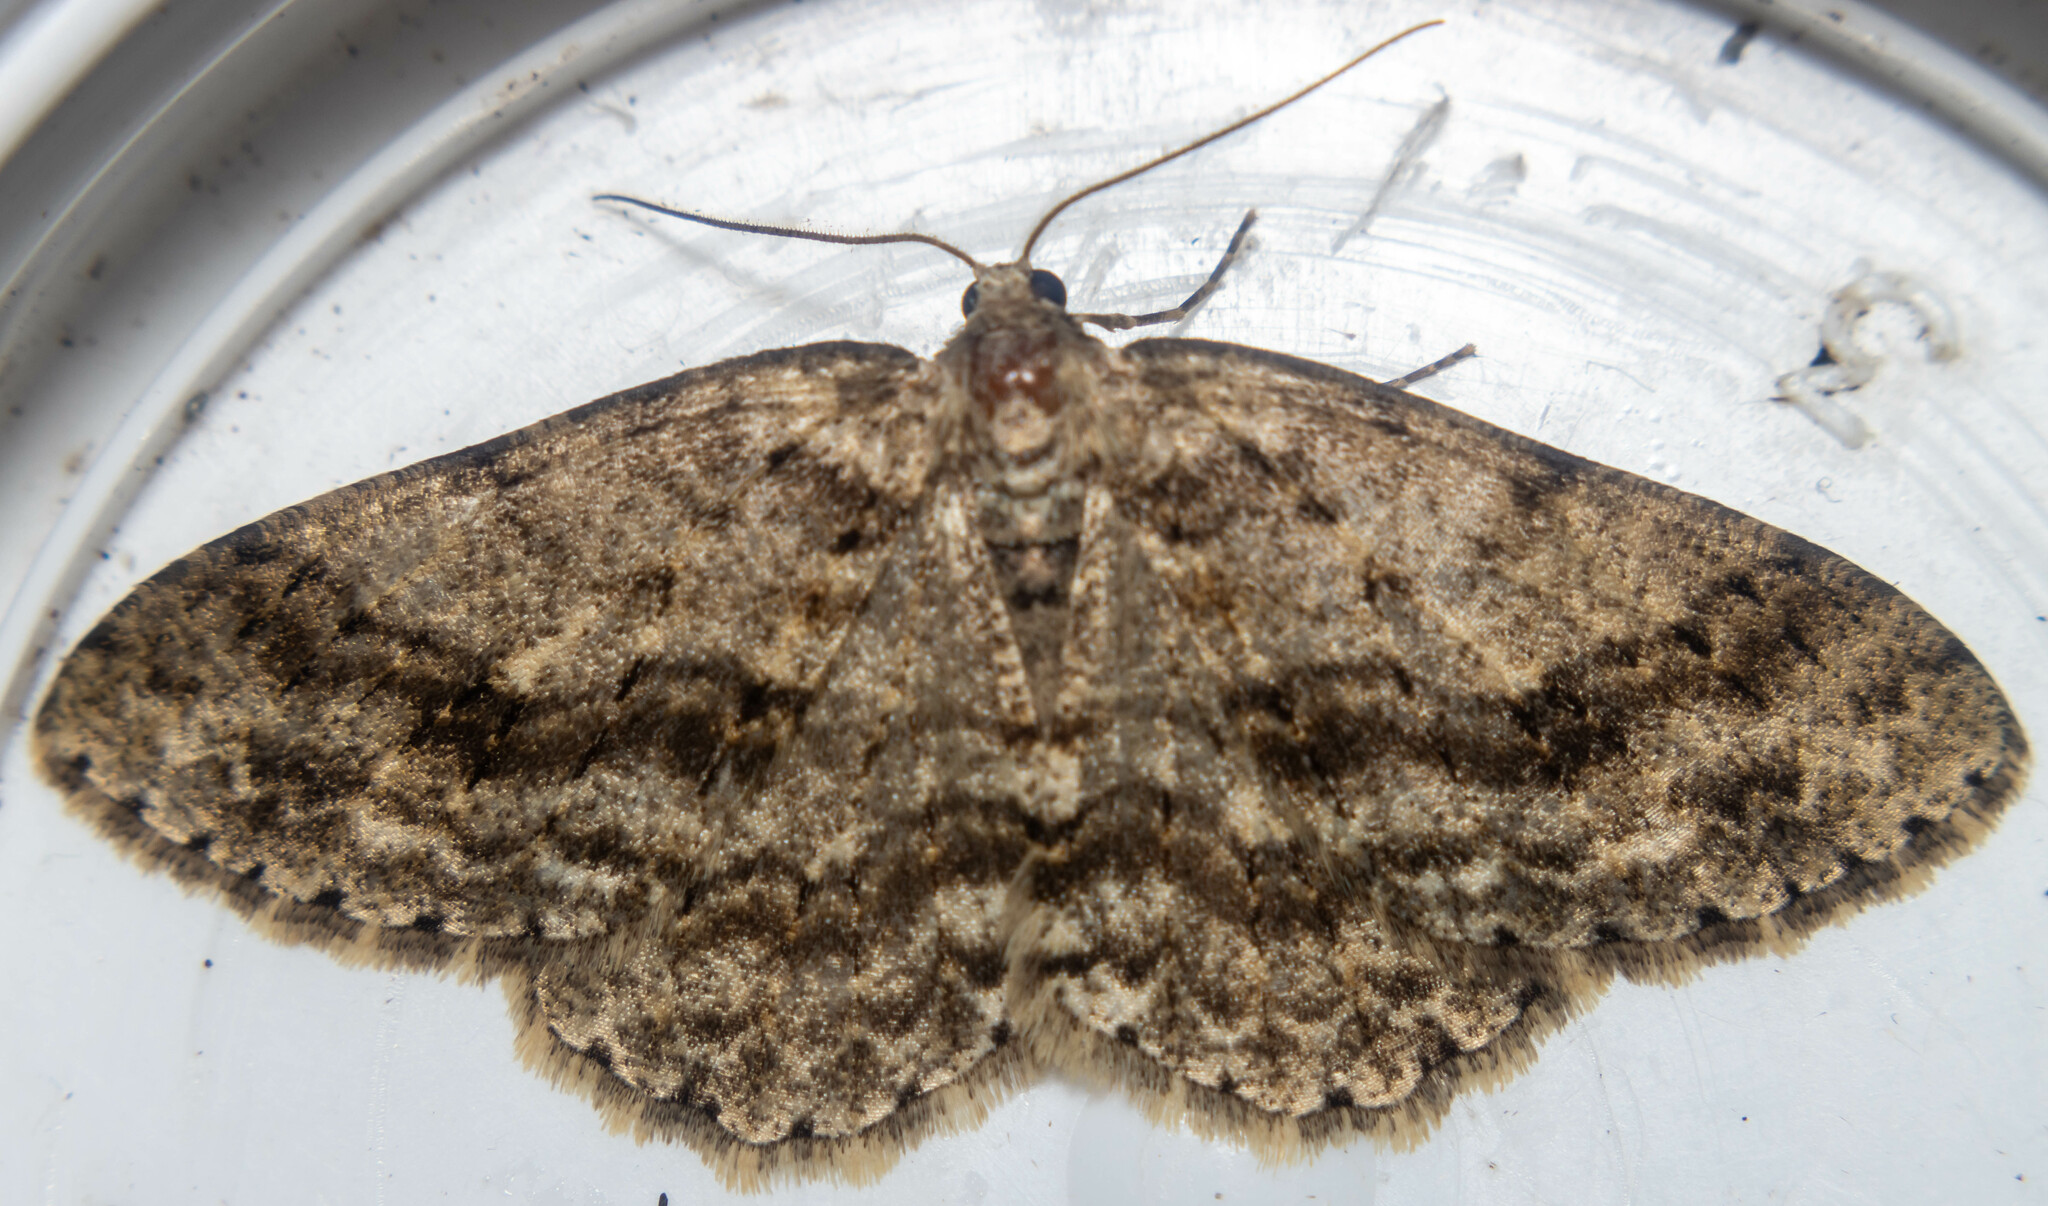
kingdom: Animalia
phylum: Arthropoda
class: Insecta
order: Lepidoptera
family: Geometridae
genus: Ectropis
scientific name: Ectropis crepuscularia
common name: Engrailed
